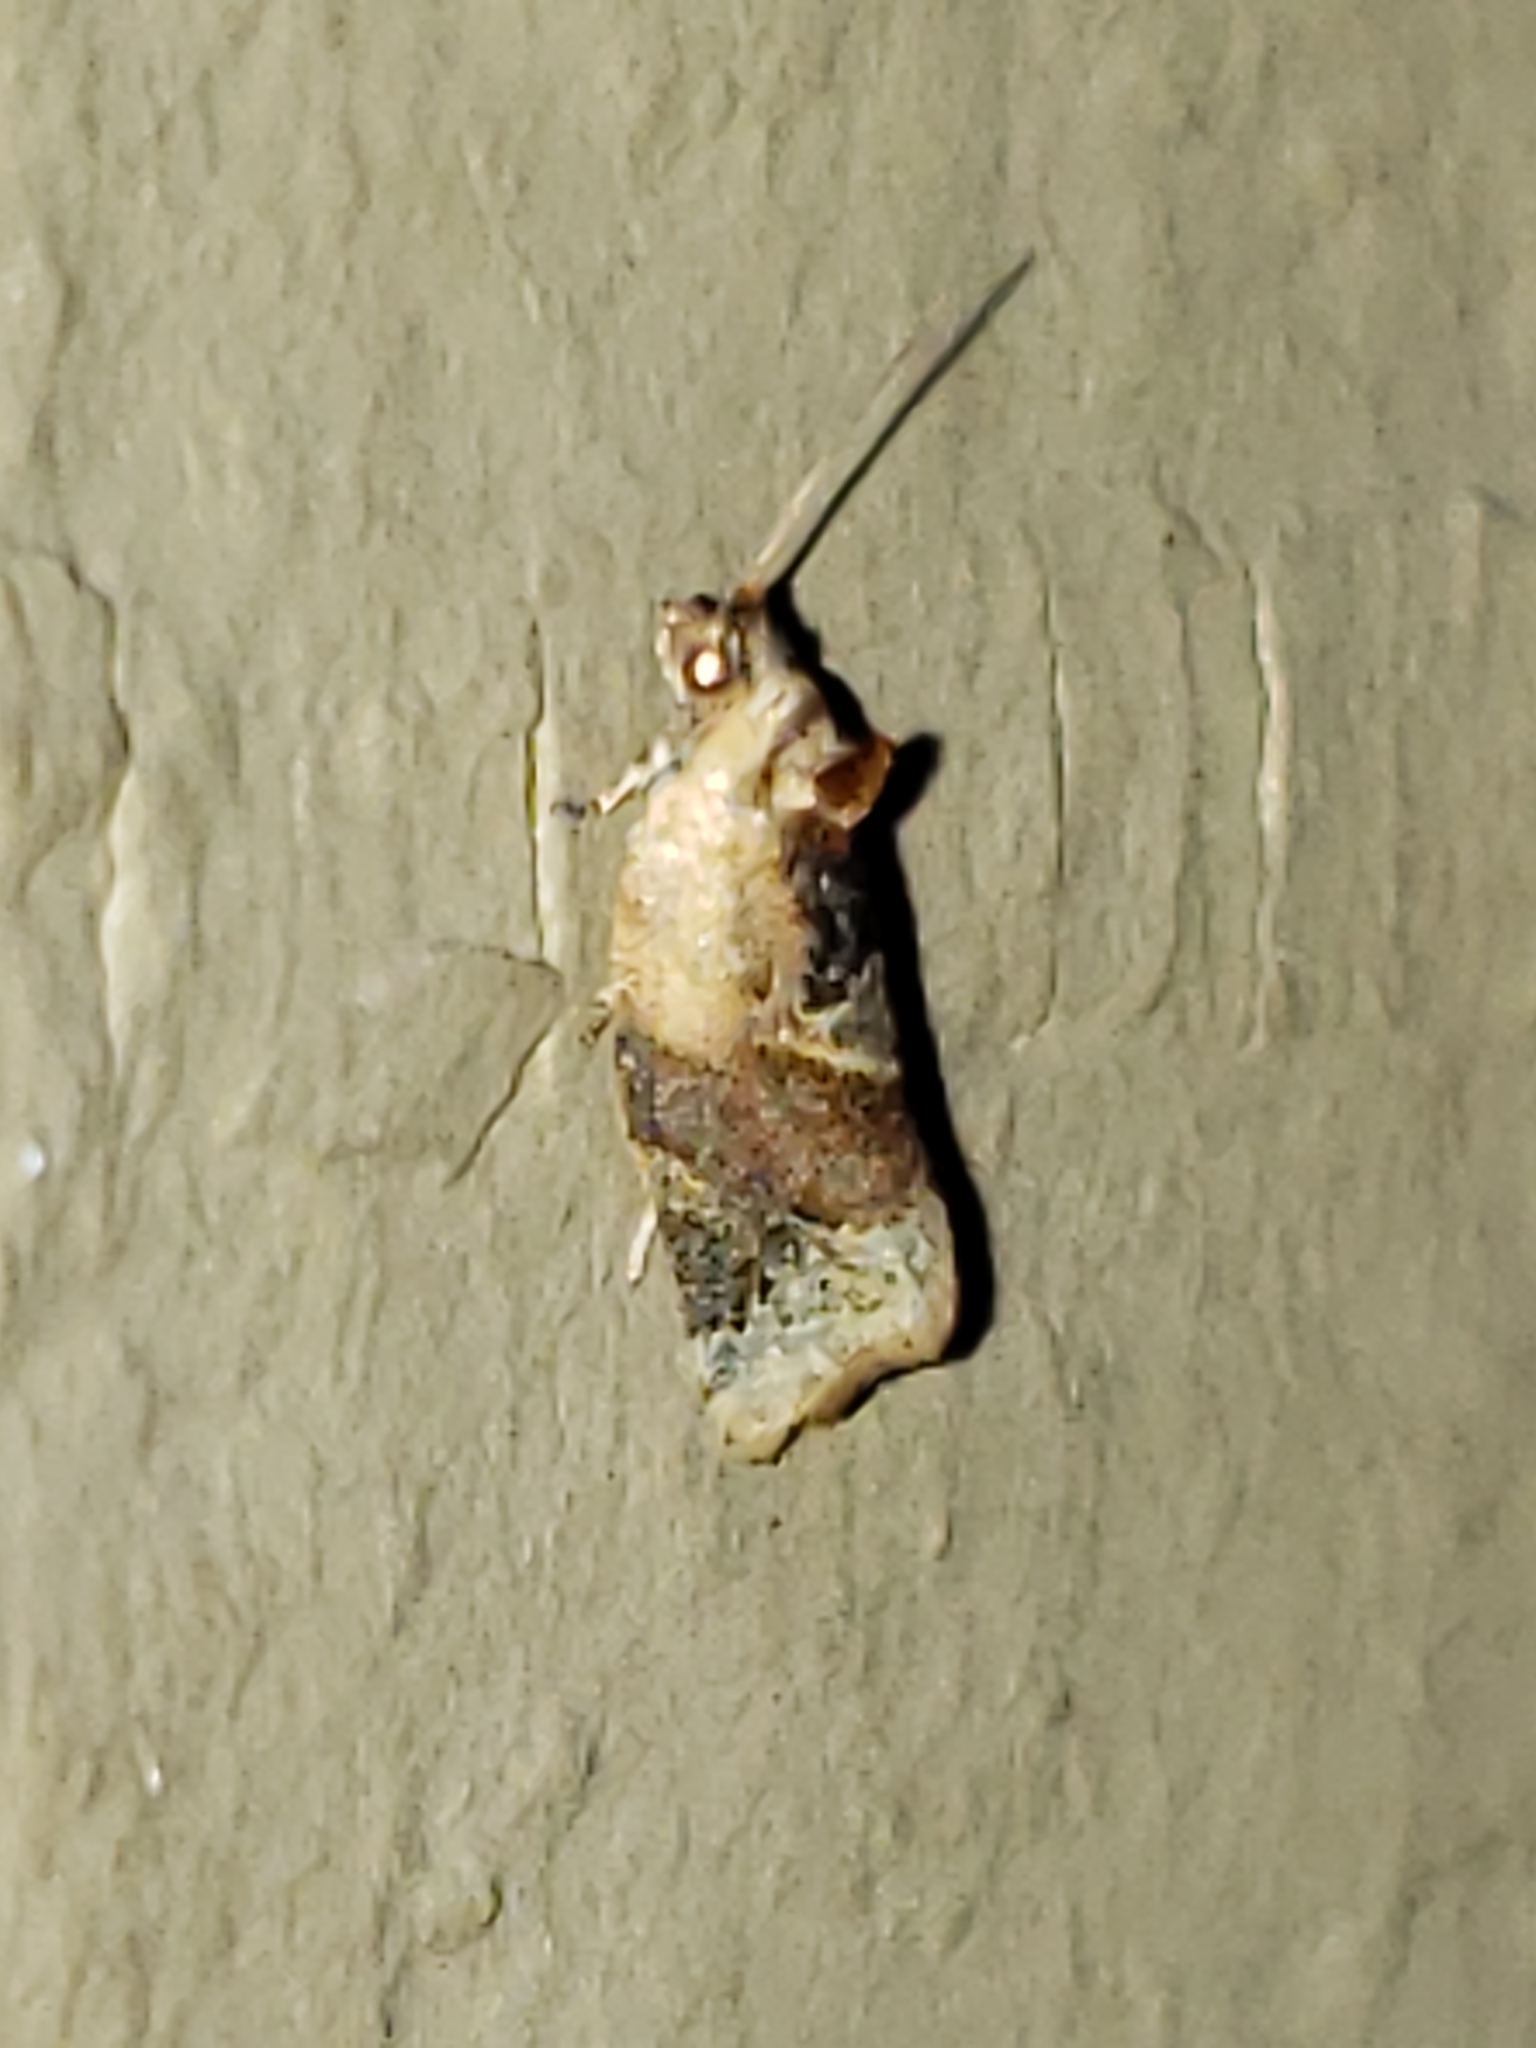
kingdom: Animalia
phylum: Arthropoda
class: Insecta
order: Lepidoptera
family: Tortricidae
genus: Argyrotaenia
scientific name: Argyrotaenia velutinana
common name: Red-banded leafroller moth
